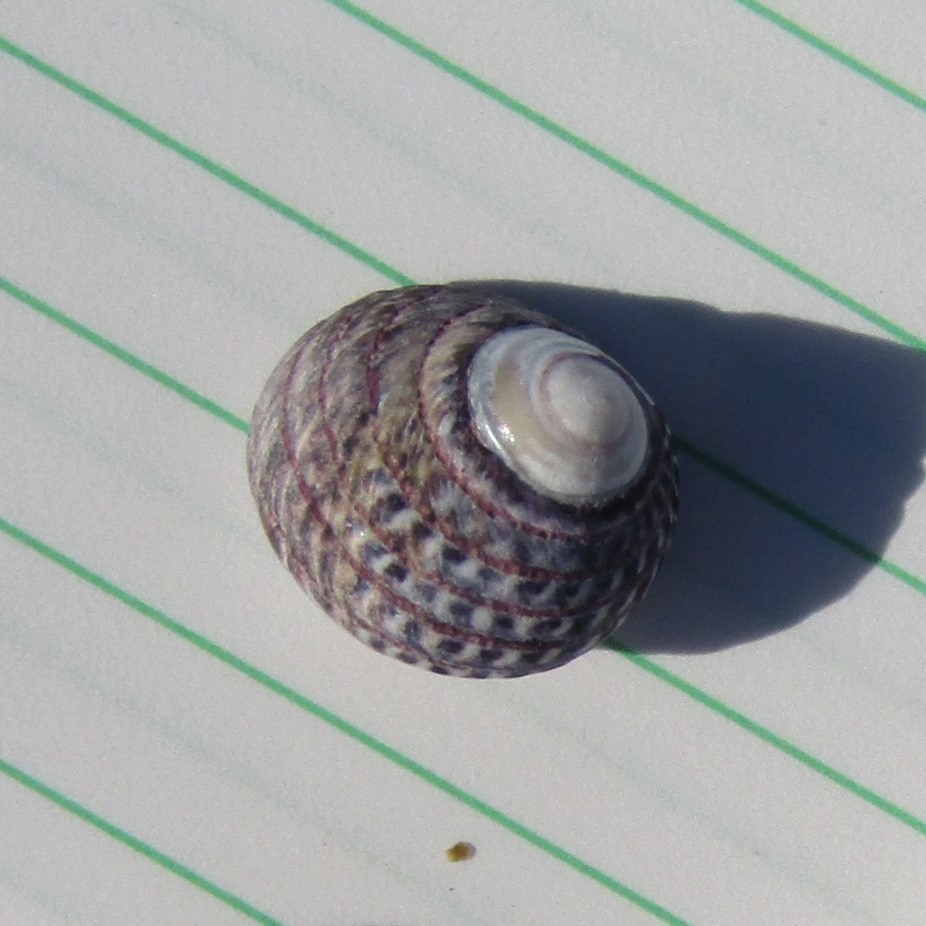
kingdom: Animalia
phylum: Mollusca
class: Gastropoda
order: Trochida
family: Trochidae
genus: Diloma
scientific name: Diloma aethiops
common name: Scorched monodont
